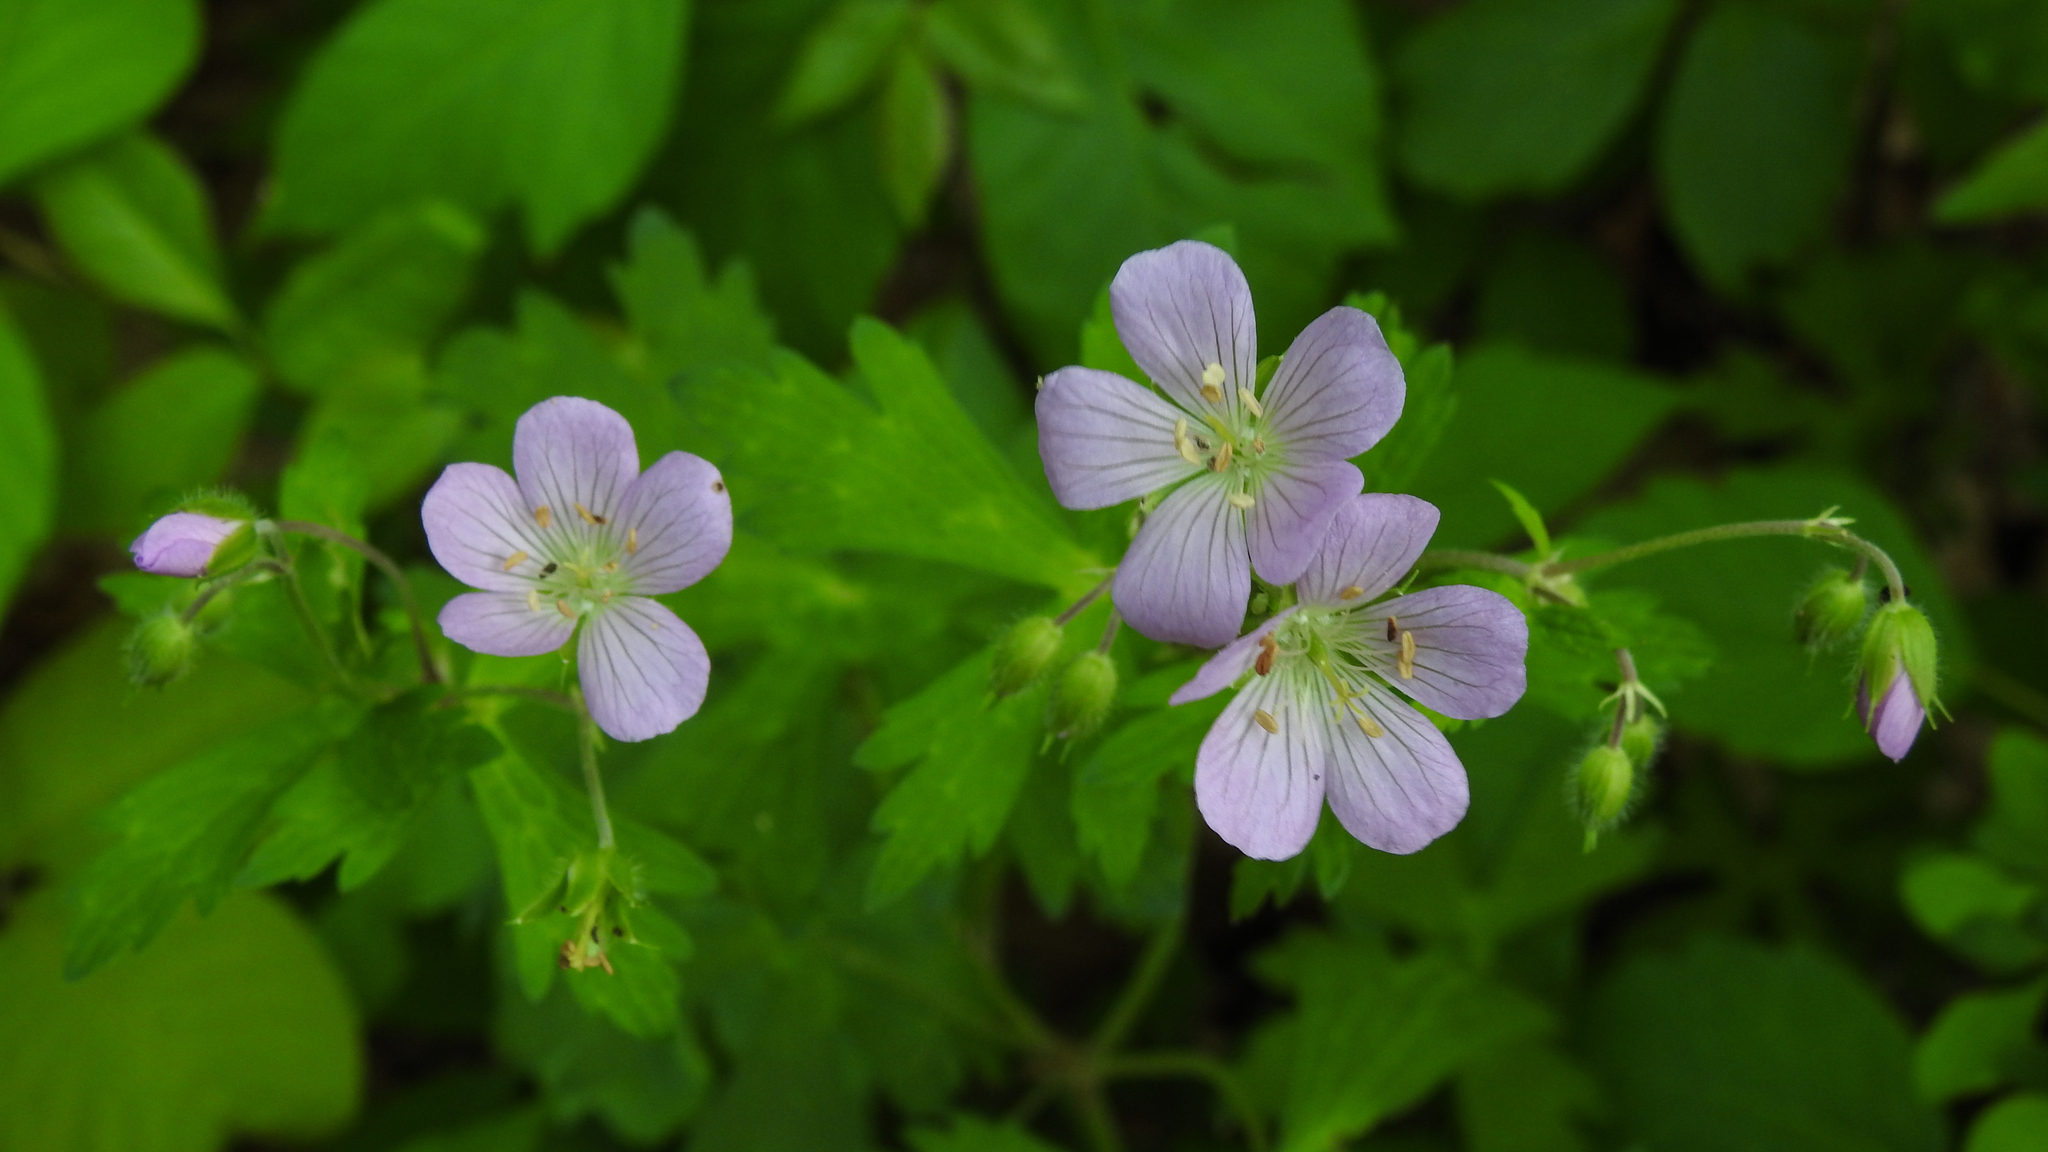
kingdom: Plantae
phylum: Tracheophyta
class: Magnoliopsida
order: Geraniales
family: Geraniaceae
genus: Geranium
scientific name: Geranium maculatum
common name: Spotted geranium
